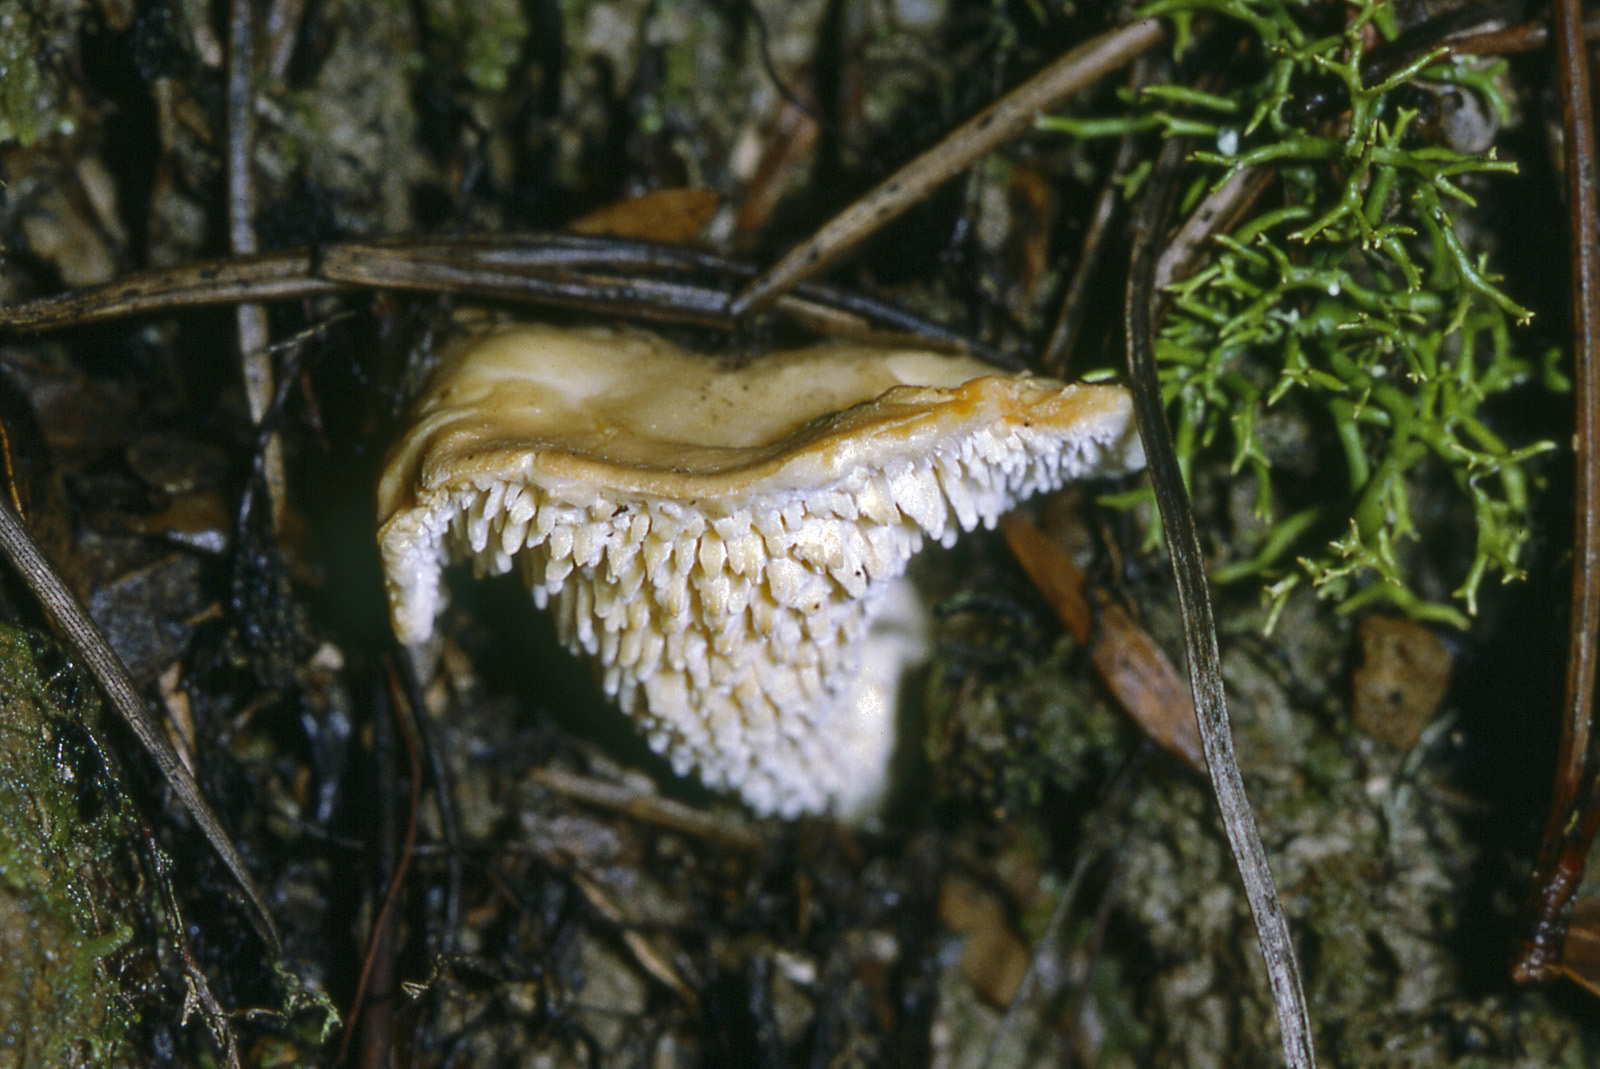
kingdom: Fungi
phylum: Basidiomycota
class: Agaricomycetes
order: Cantharellales
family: Hydnaceae
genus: Hydnum
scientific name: Hydnum ambustum
